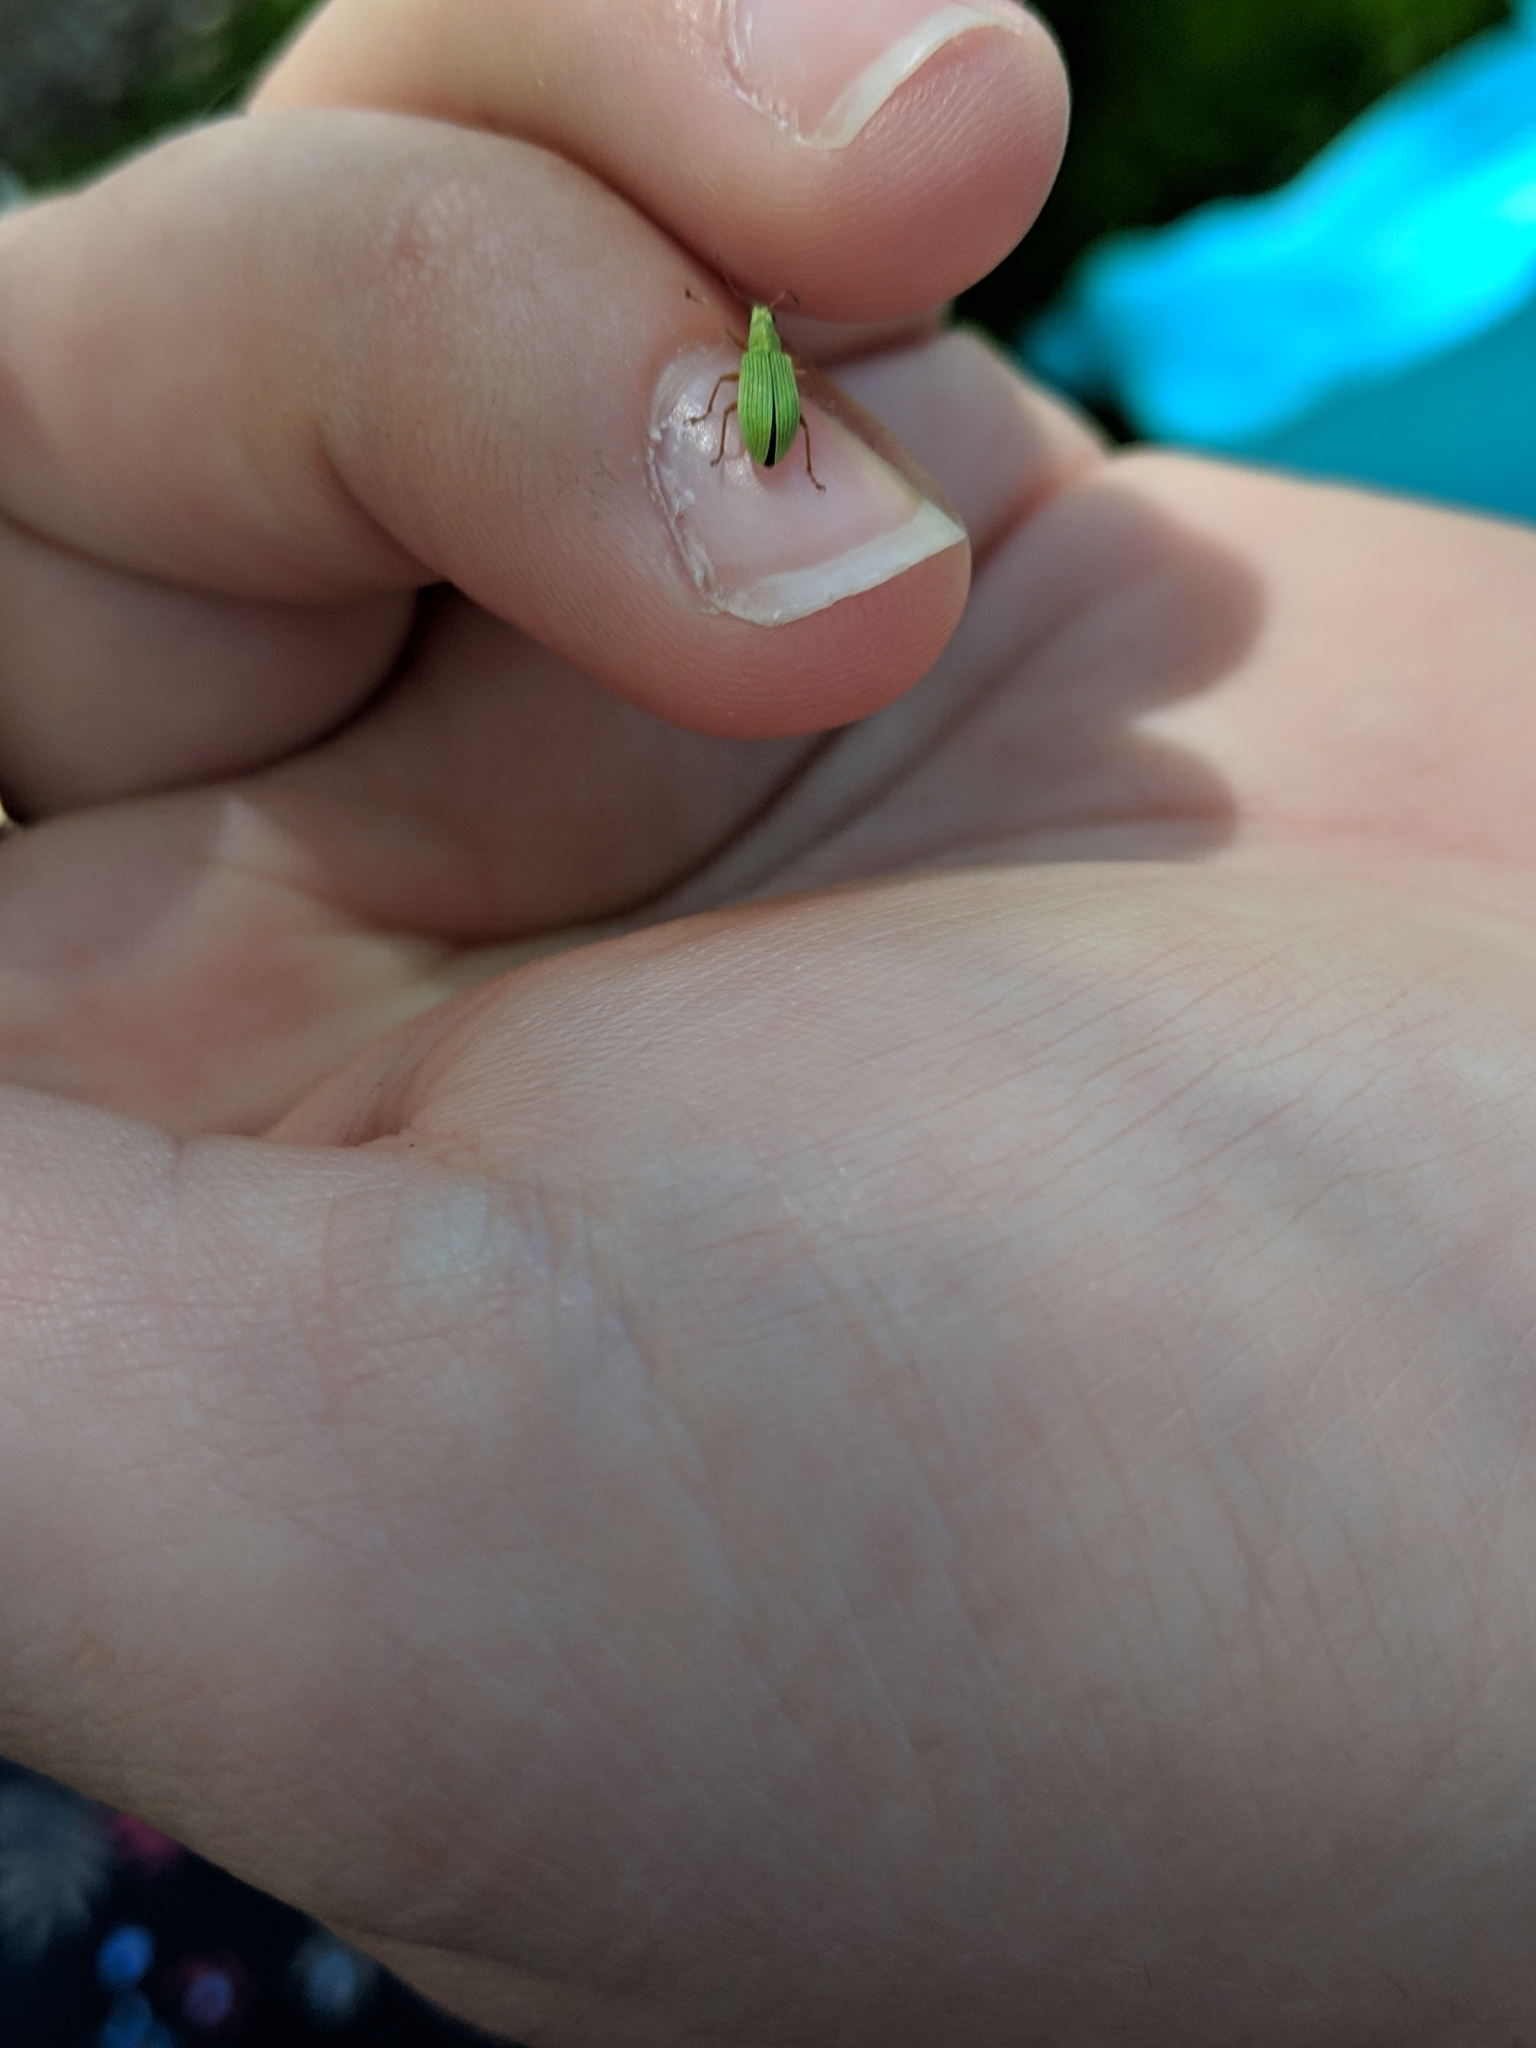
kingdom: Animalia
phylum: Arthropoda
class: Insecta
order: Coleoptera
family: Curculionidae
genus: Polydrusus
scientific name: Polydrusus impressifrons
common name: Weevil
